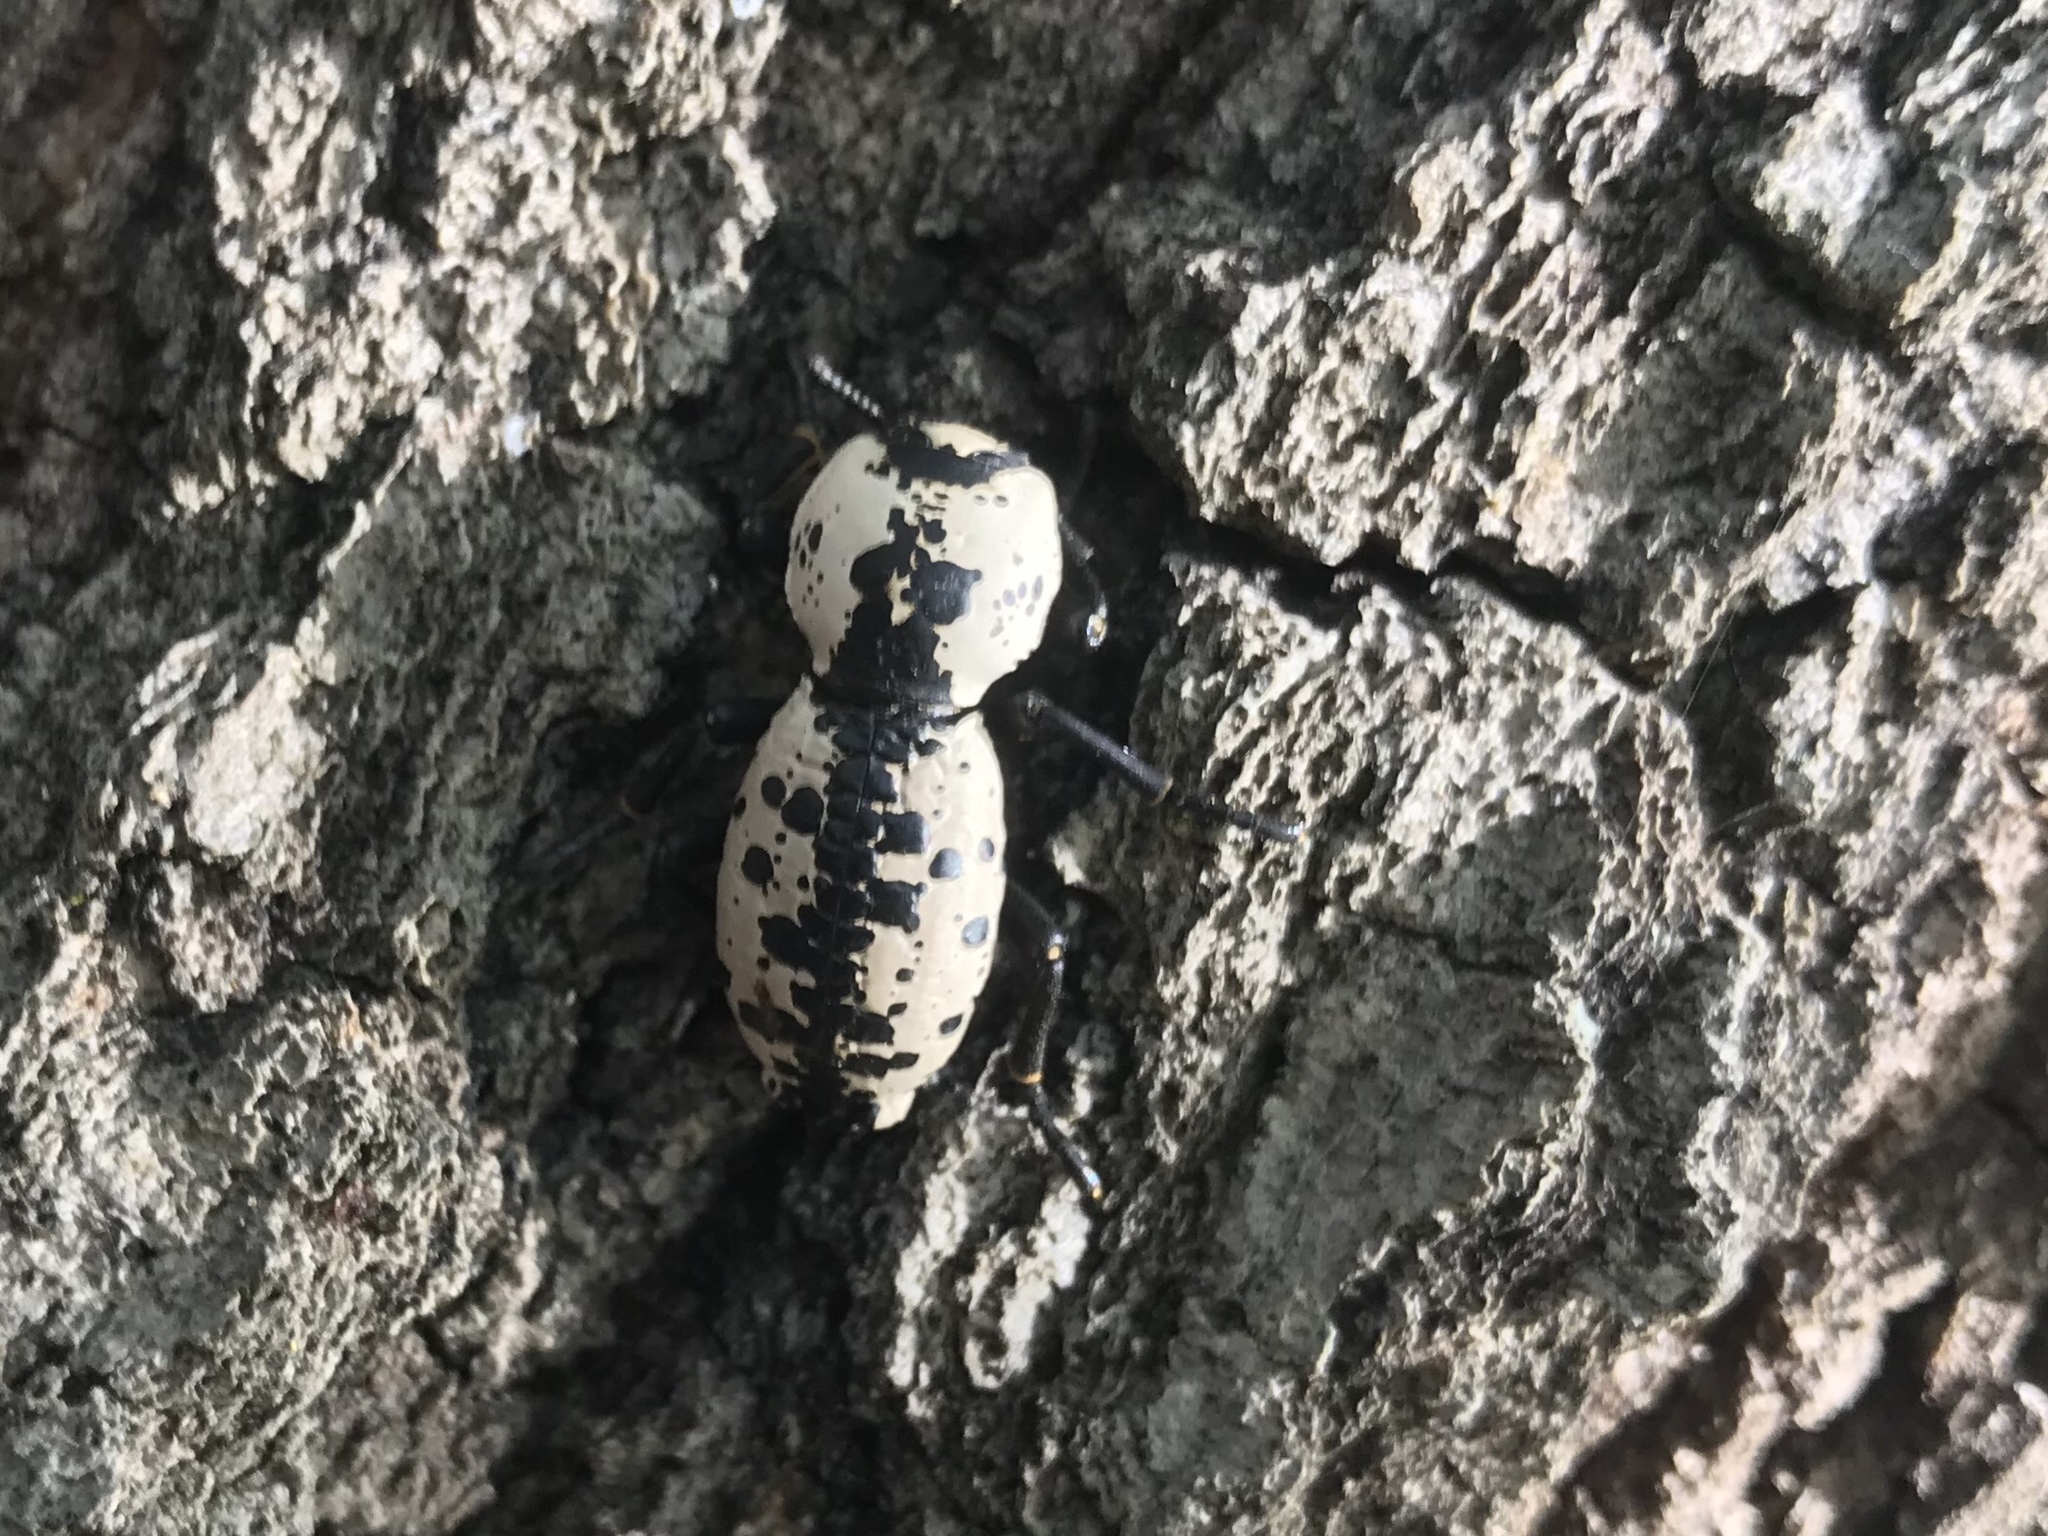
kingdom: Animalia
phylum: Arthropoda
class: Insecta
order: Coleoptera
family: Zopheridae
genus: Zopherus
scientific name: Zopherus nodulosus
